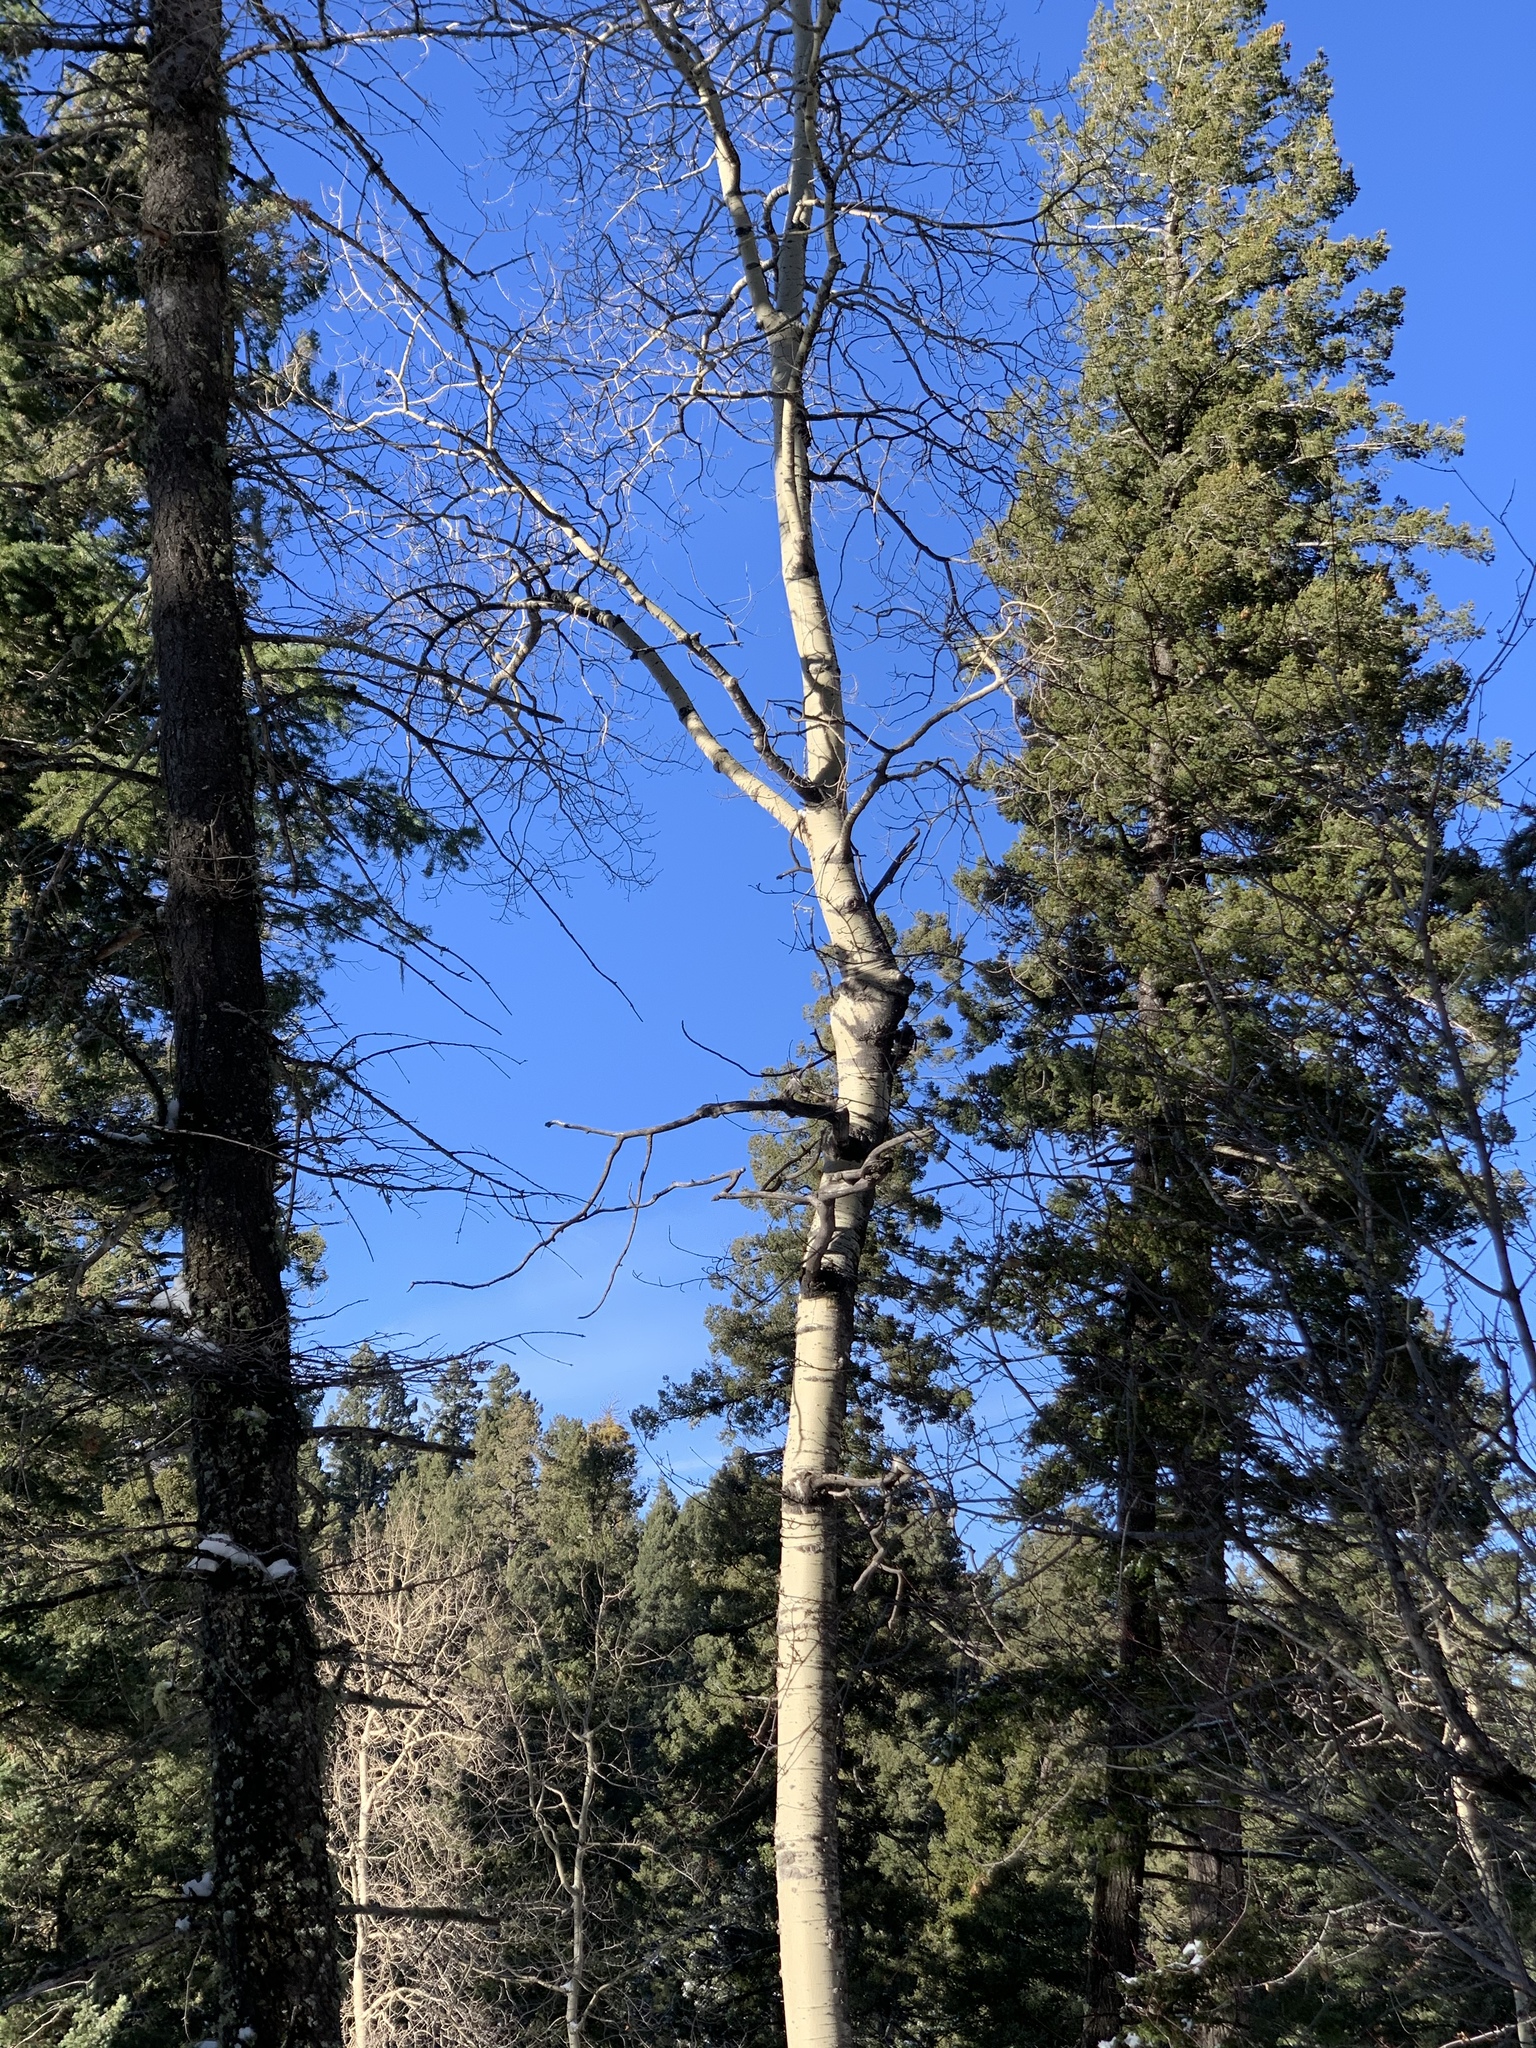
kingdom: Plantae
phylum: Tracheophyta
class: Magnoliopsida
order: Malpighiales
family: Salicaceae
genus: Populus
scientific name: Populus tremuloides
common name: Quaking aspen
